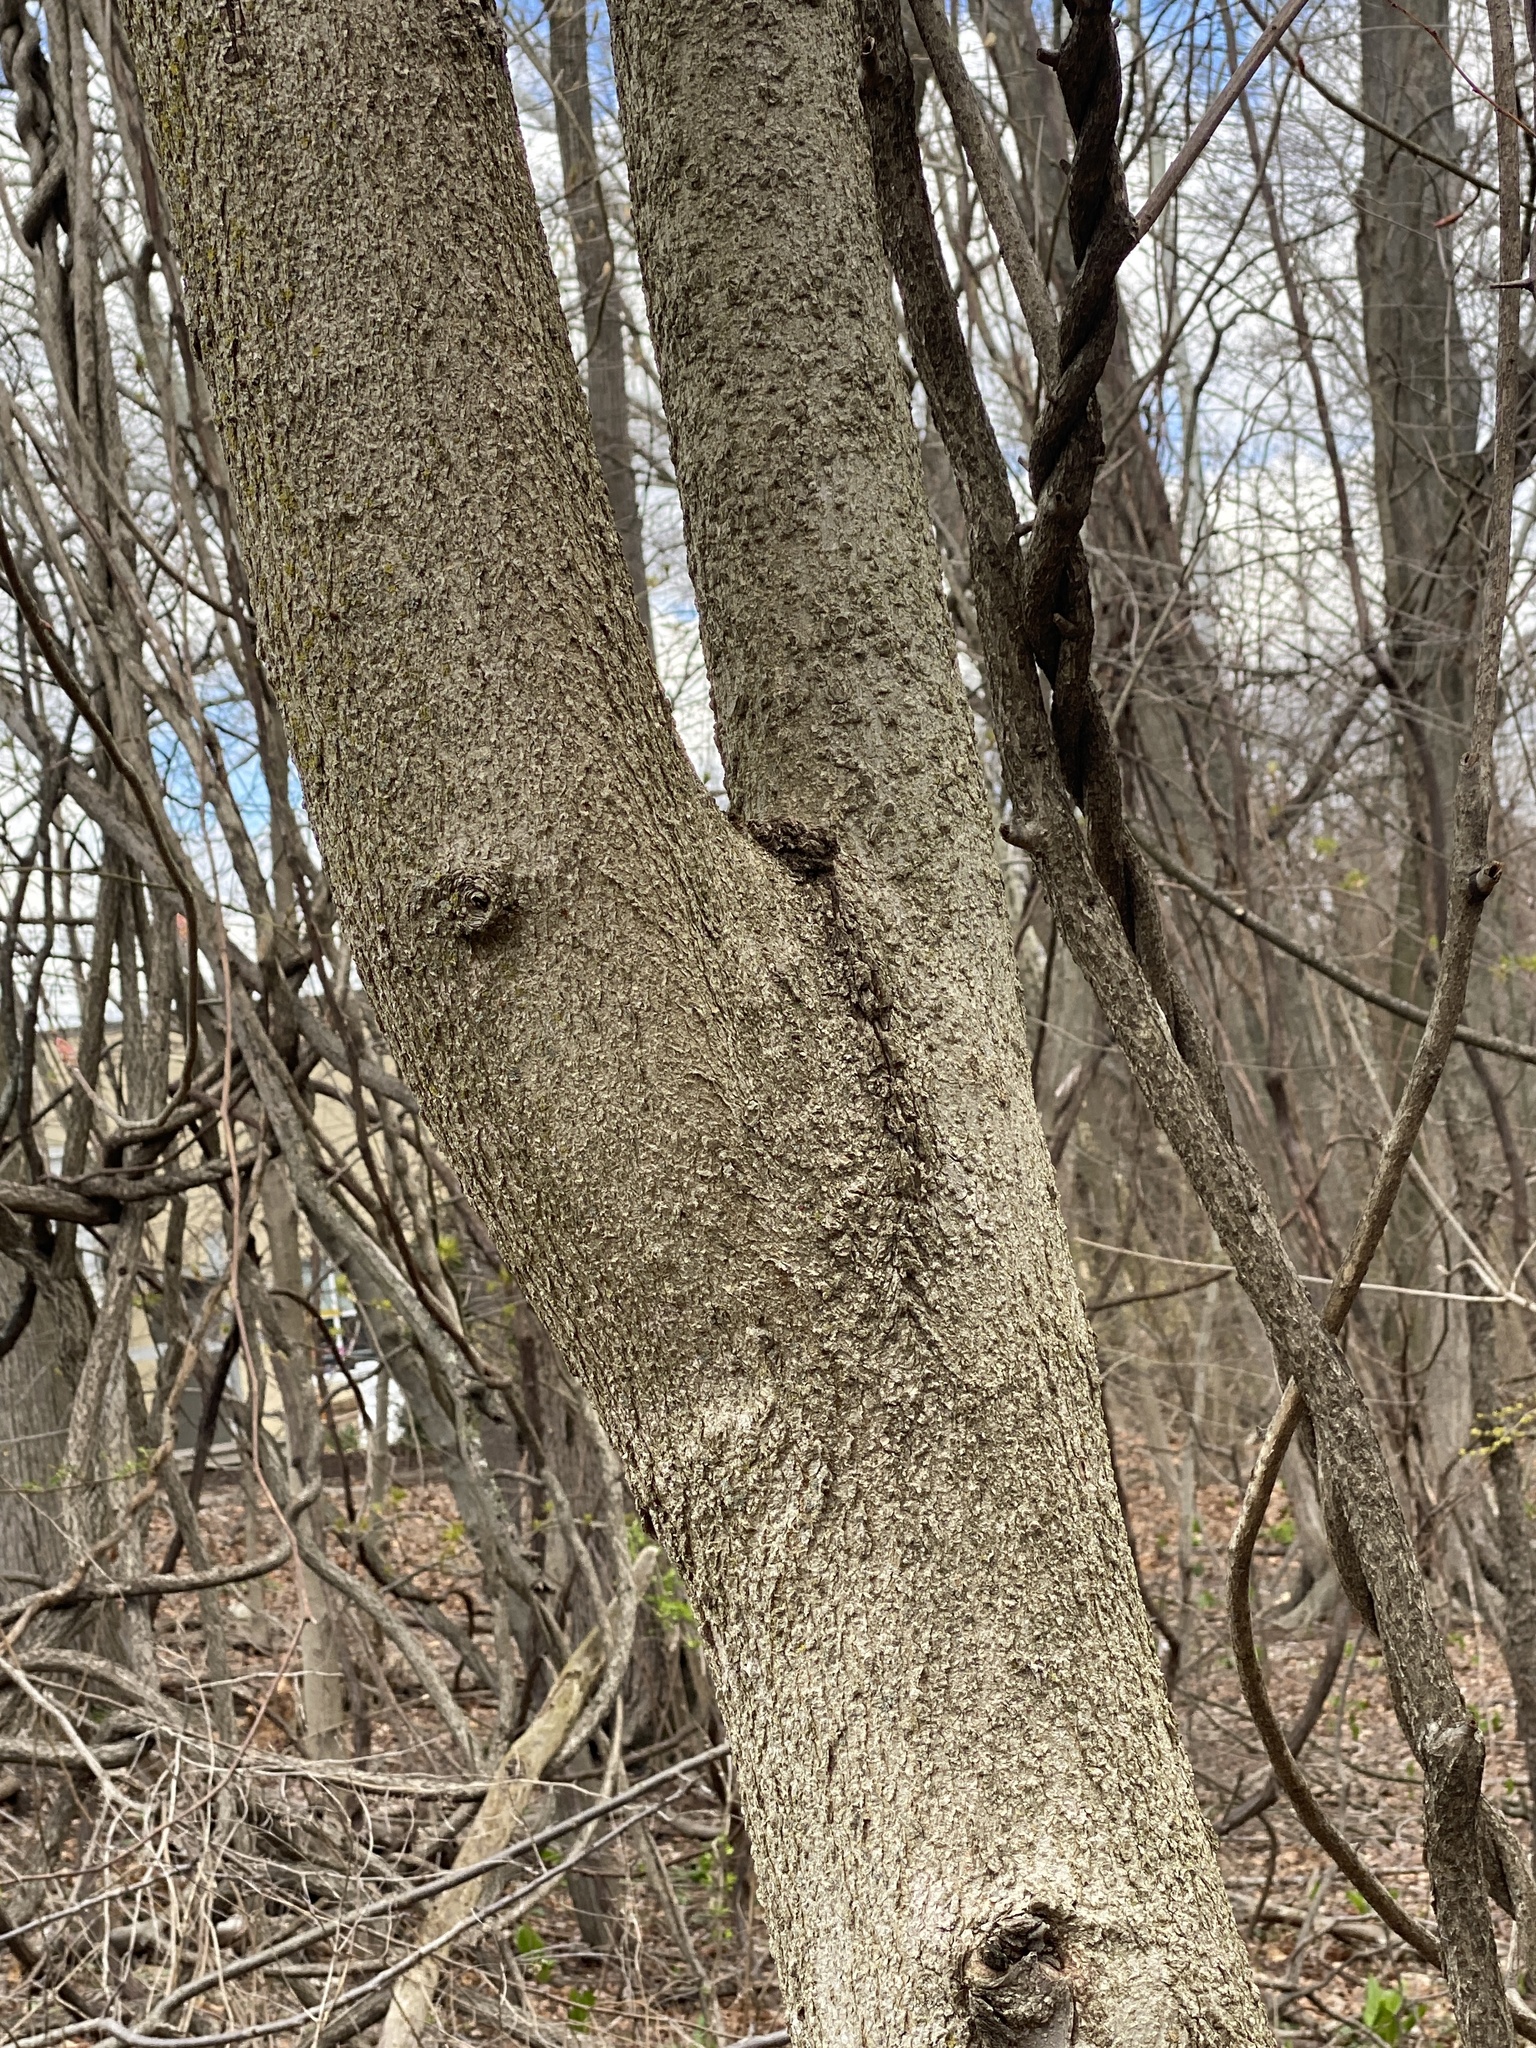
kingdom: Plantae
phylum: Tracheophyta
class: Magnoliopsida
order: Sapindales
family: Sapindaceae
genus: Aesculus
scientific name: Aesculus flava
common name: Yellow buckeye
